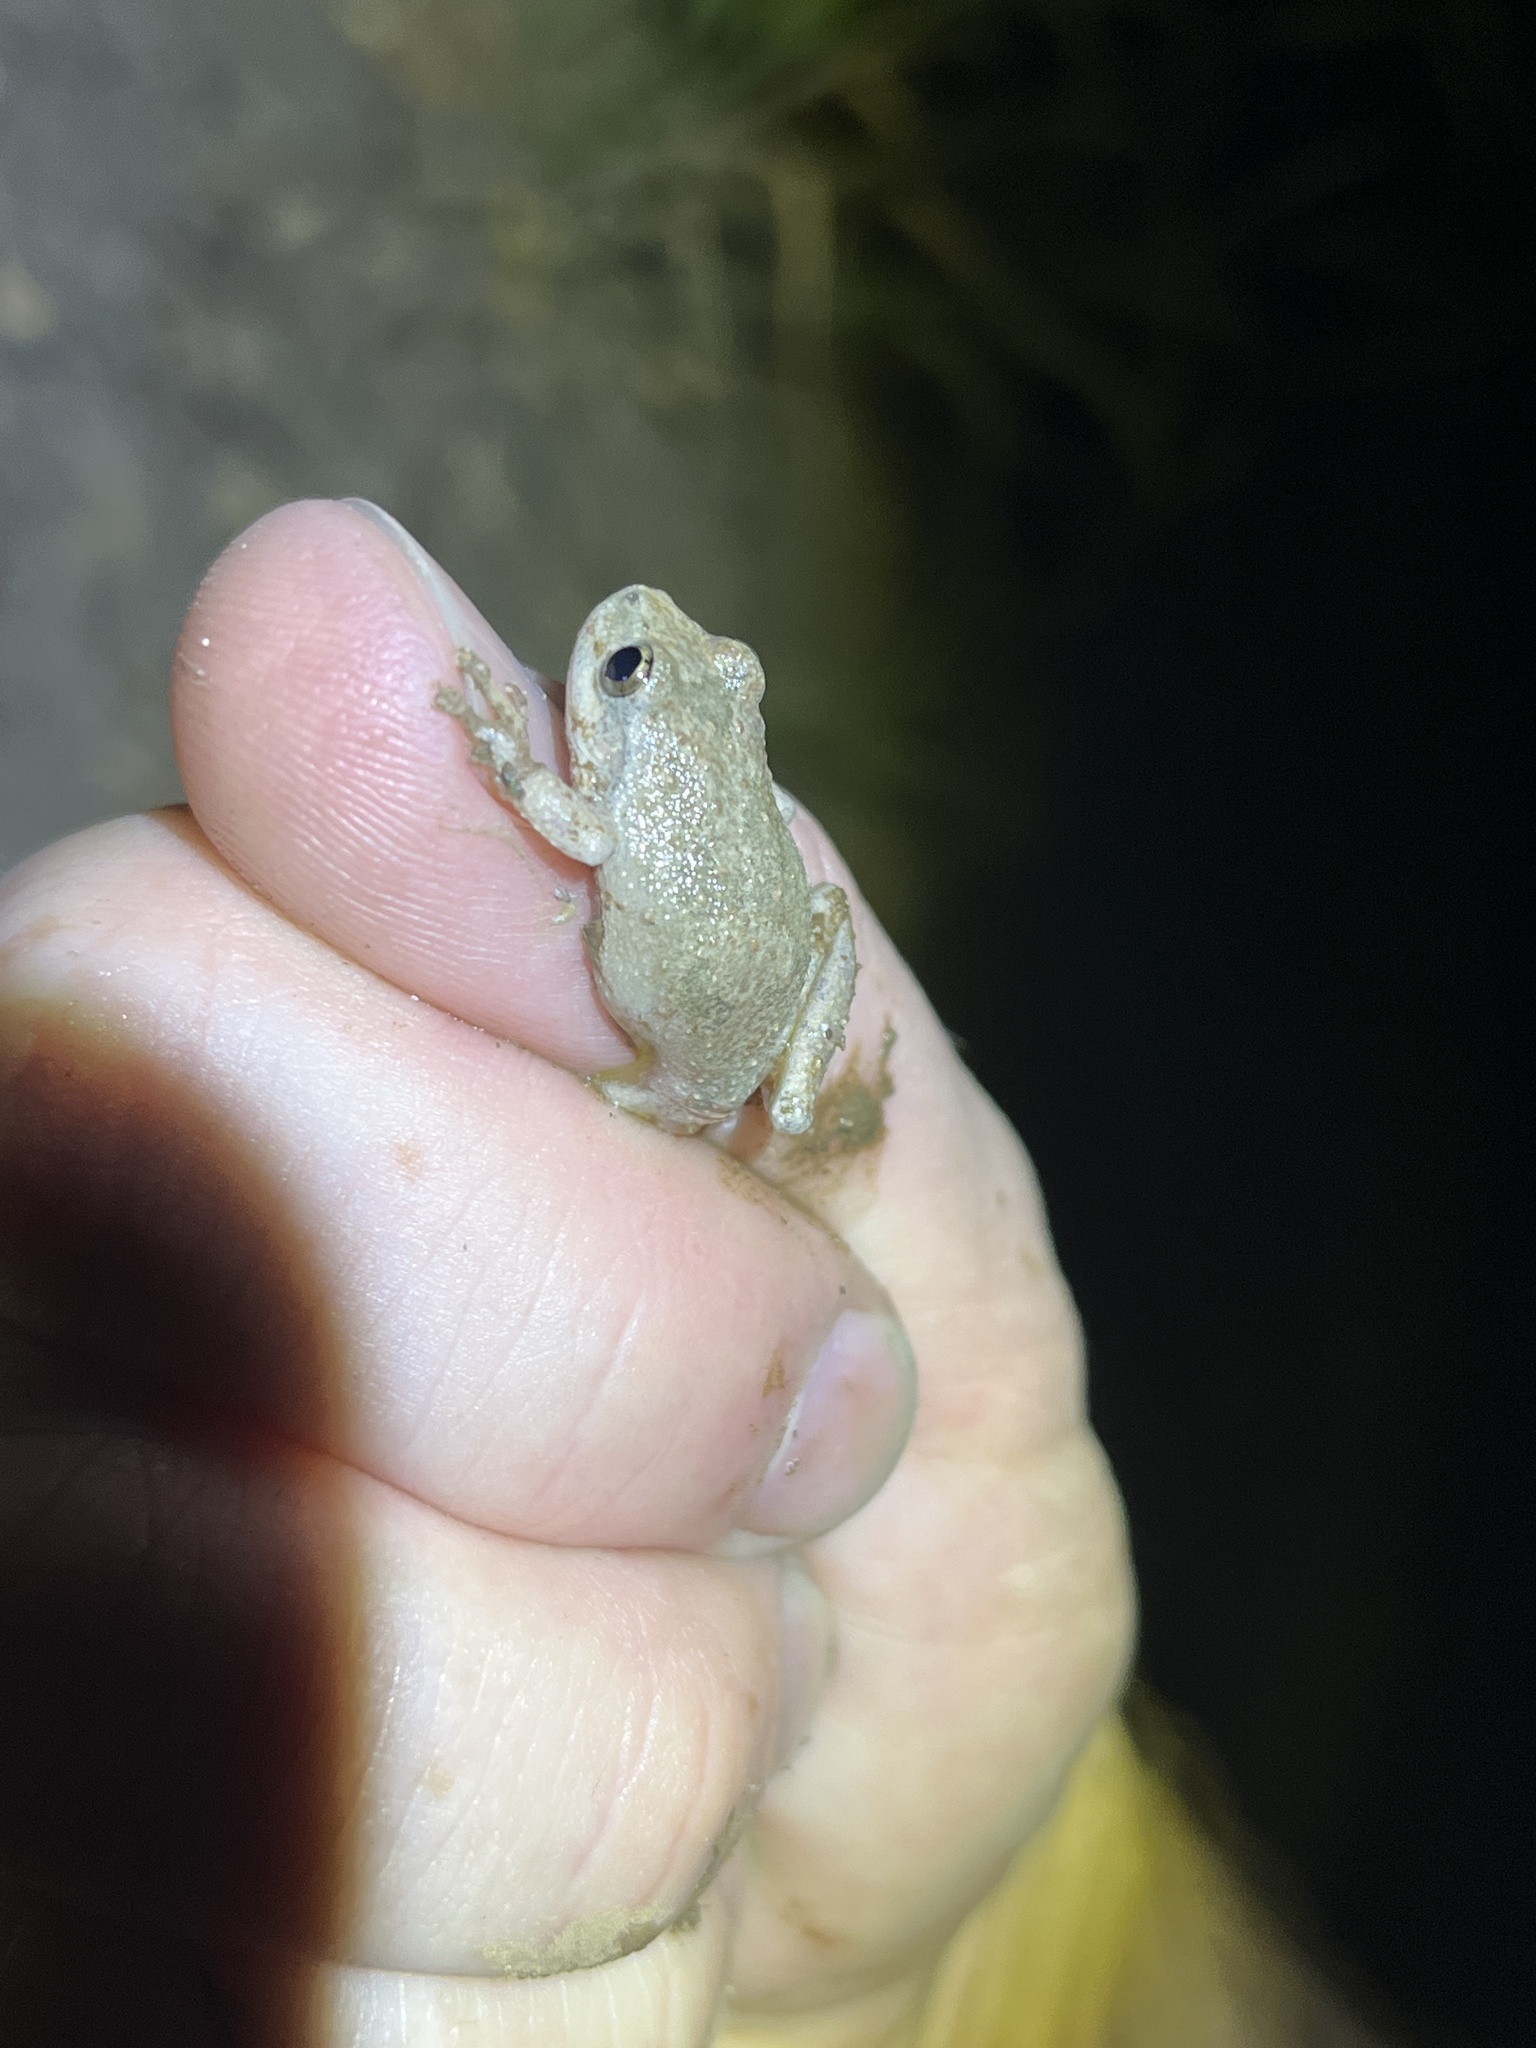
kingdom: Animalia
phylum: Chordata
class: Amphibia
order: Anura
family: Hylidae
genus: Pseudacris
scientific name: Pseudacris cadaverina
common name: California chorus frog
